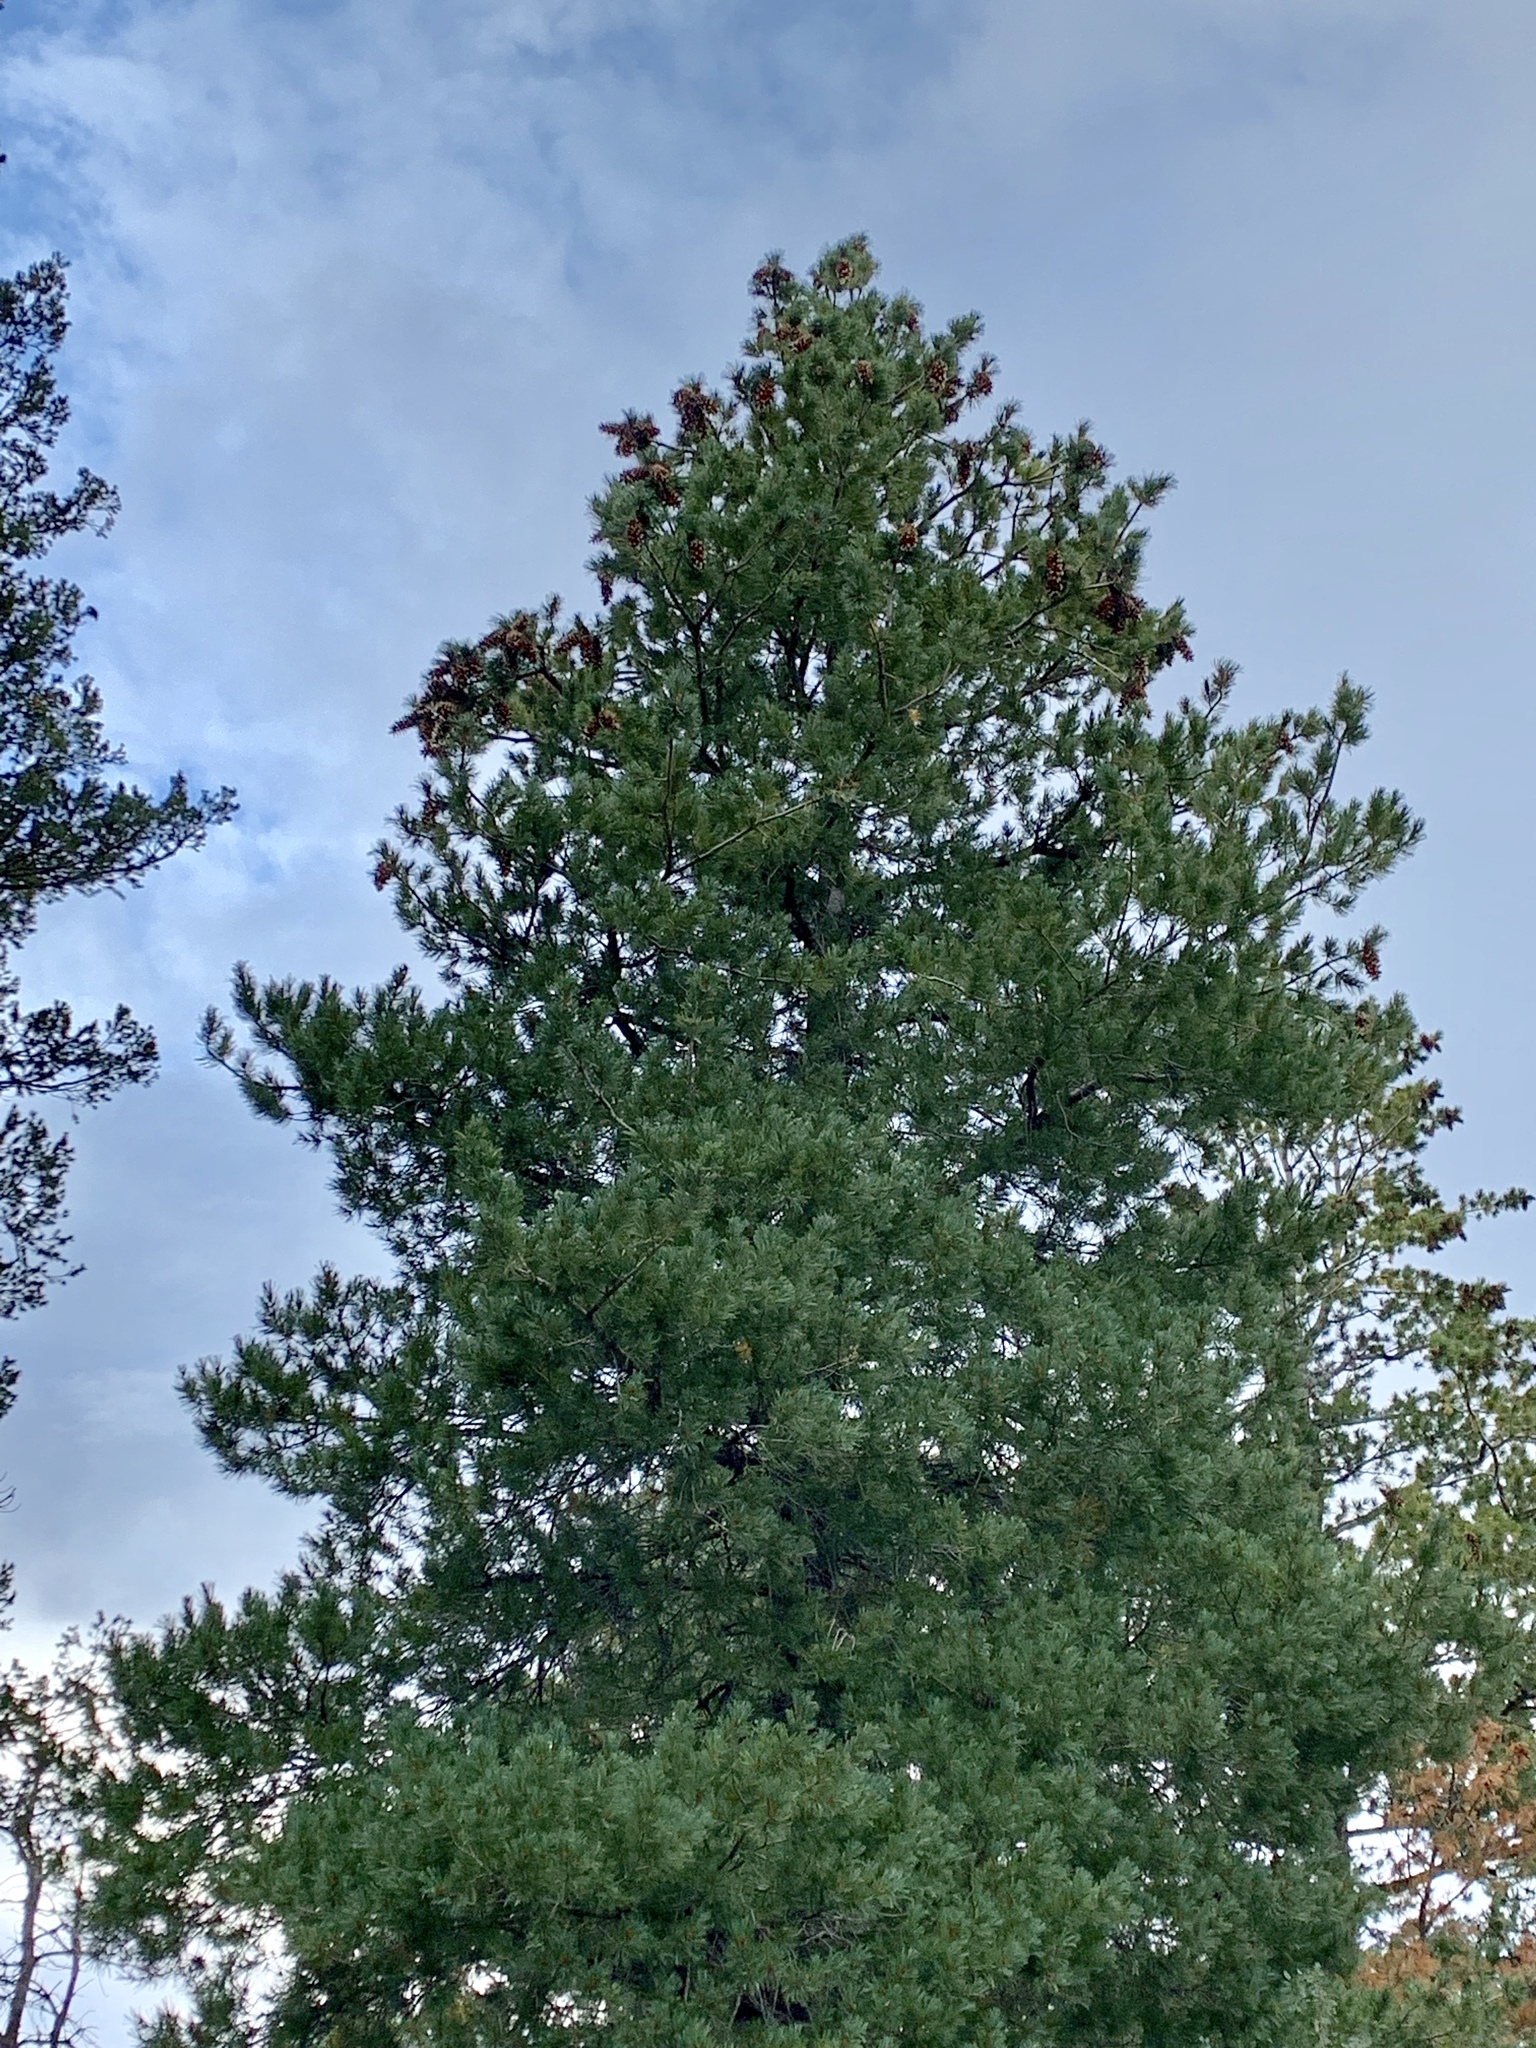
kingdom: Plantae
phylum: Tracheophyta
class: Pinopsida
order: Pinales
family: Pinaceae
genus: Pinus
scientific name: Pinus strobiformis
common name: Southwestern white pine
